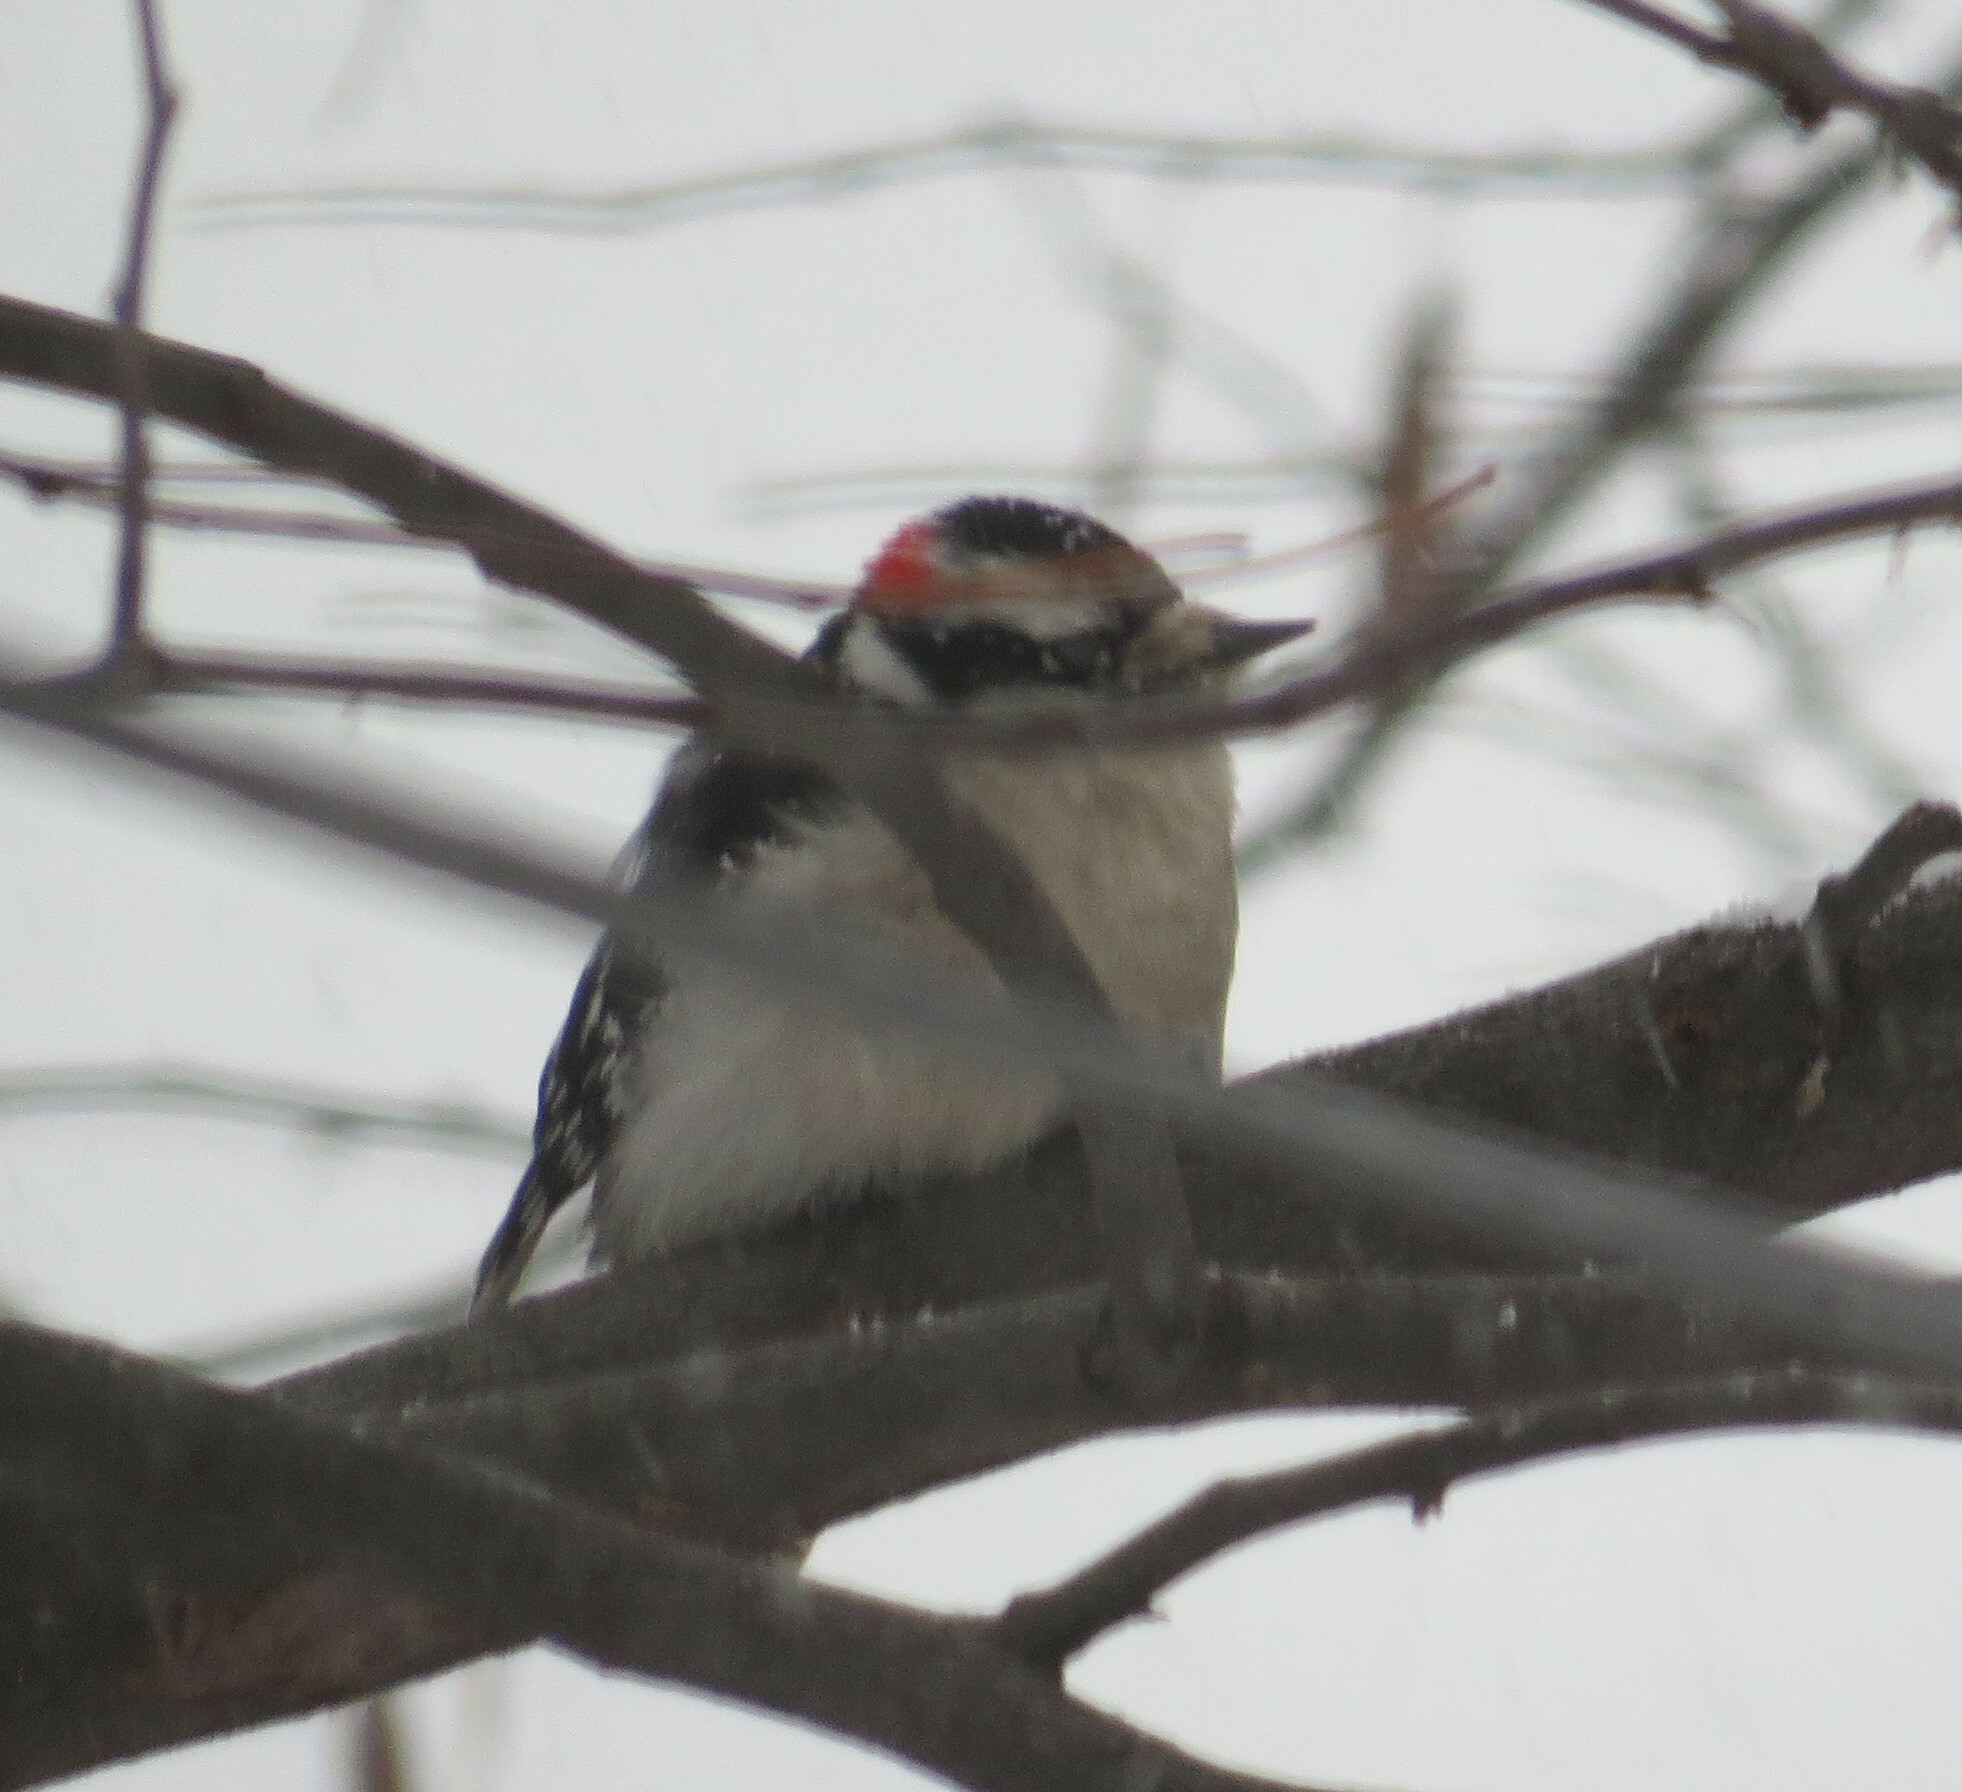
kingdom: Animalia
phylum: Chordata
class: Aves
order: Piciformes
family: Picidae
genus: Dryobates
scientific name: Dryobates pubescens
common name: Downy woodpecker
